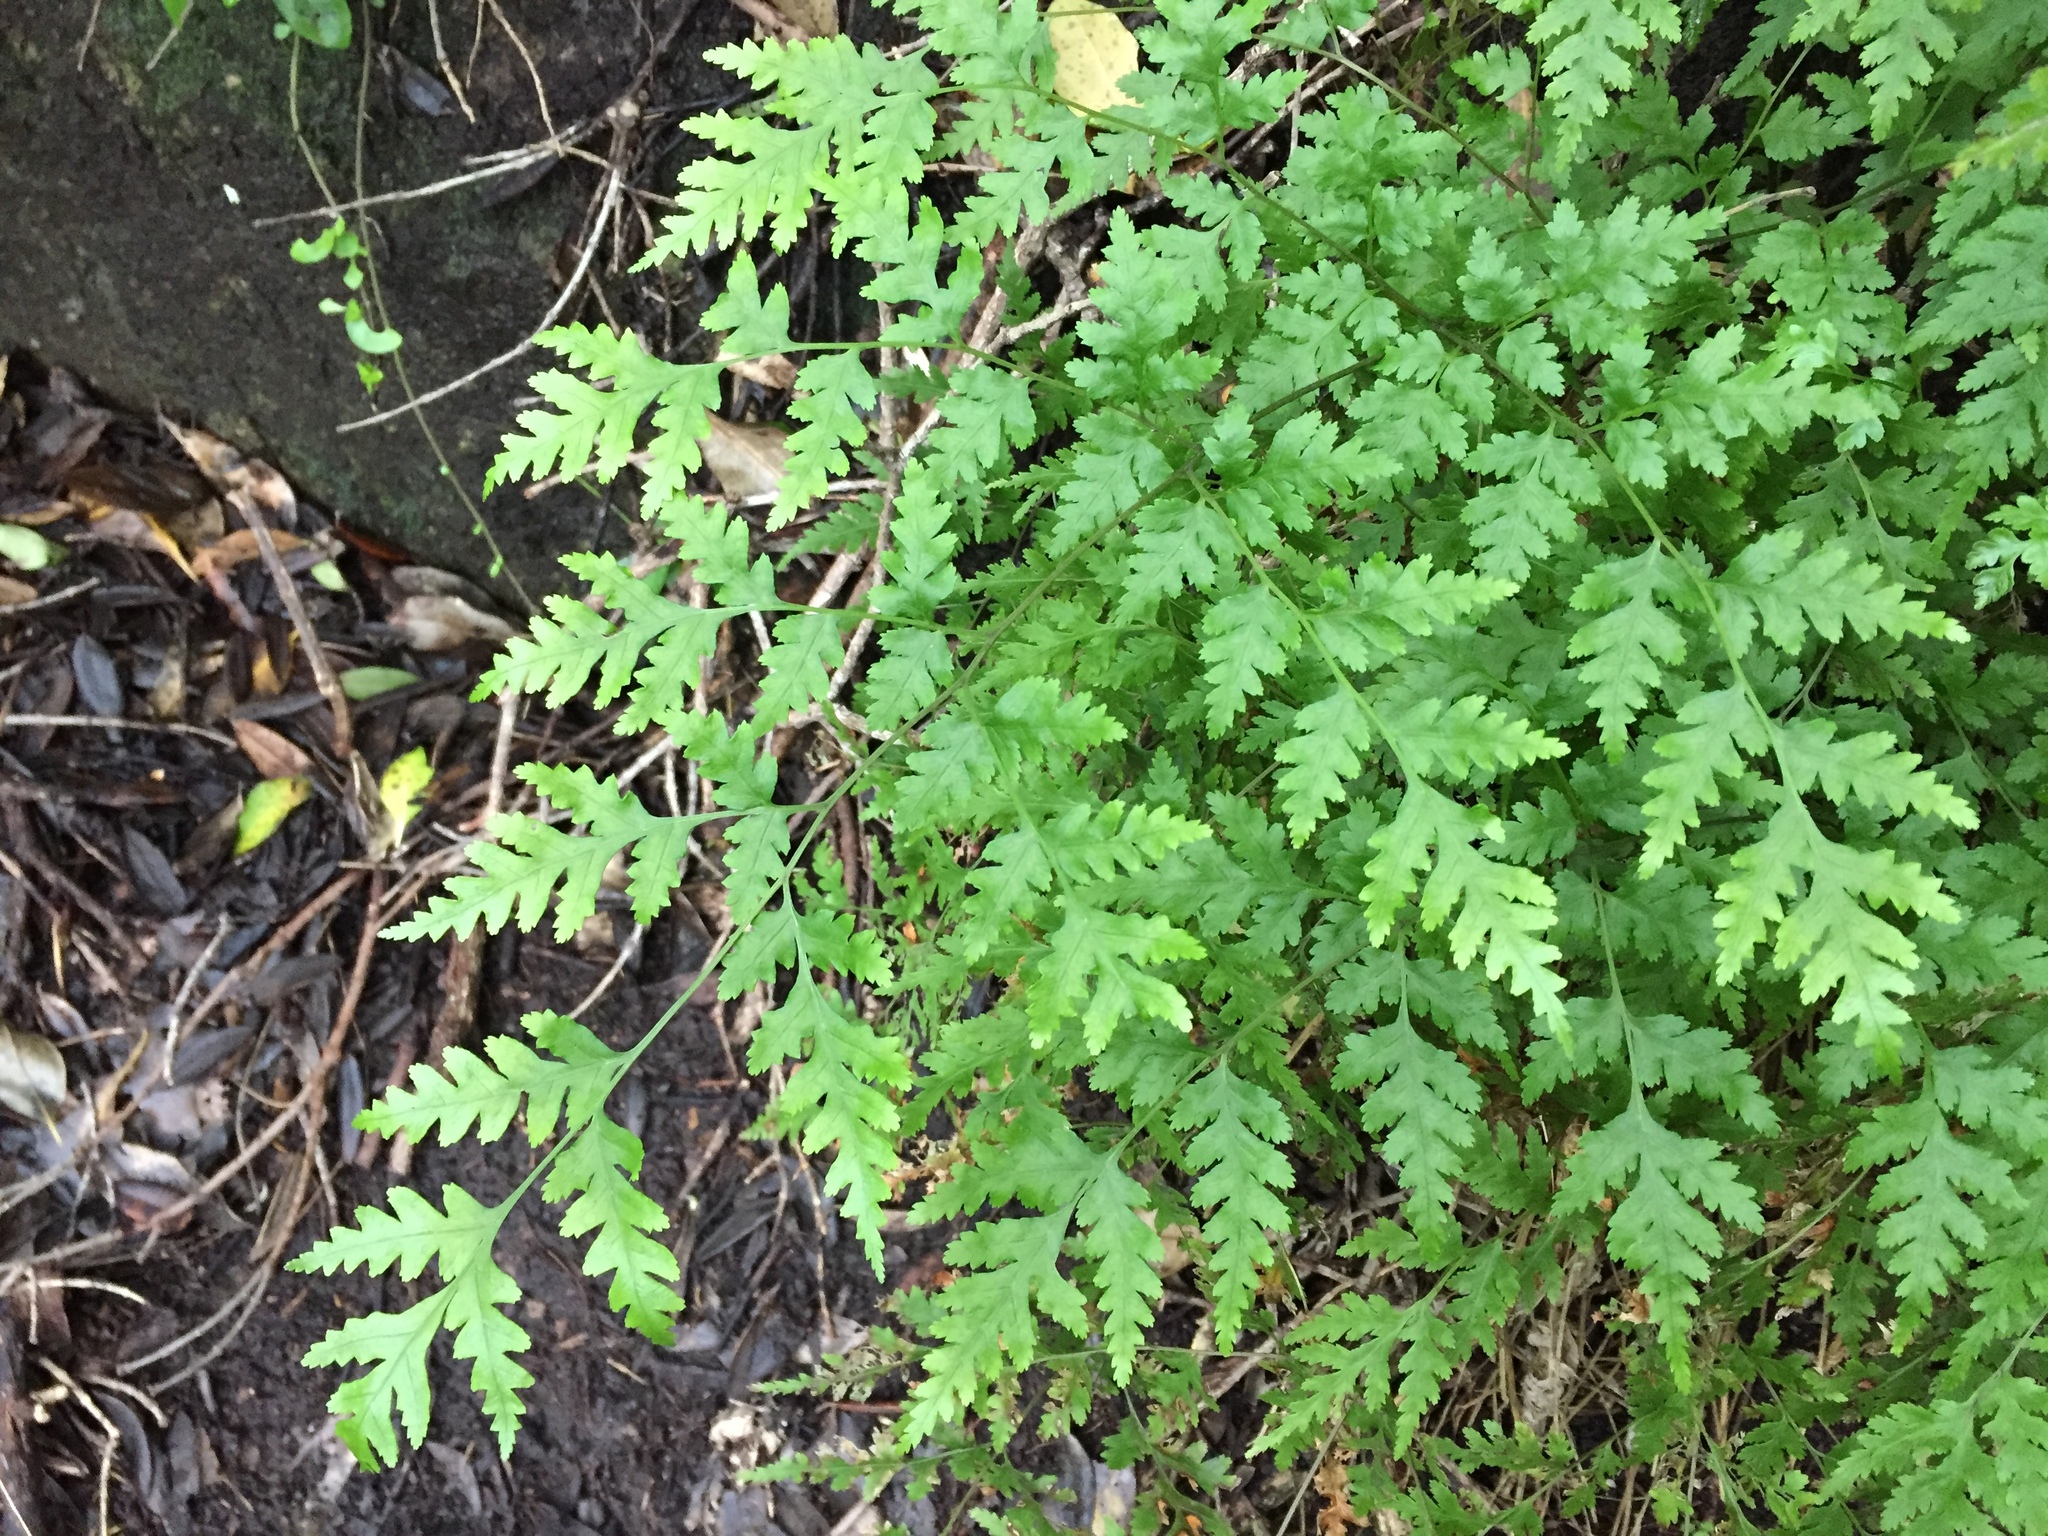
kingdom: Plantae
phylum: Tracheophyta
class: Polypodiopsida
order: Polypodiales
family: Pteridaceae
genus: Pteris
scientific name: Pteris macilenta
